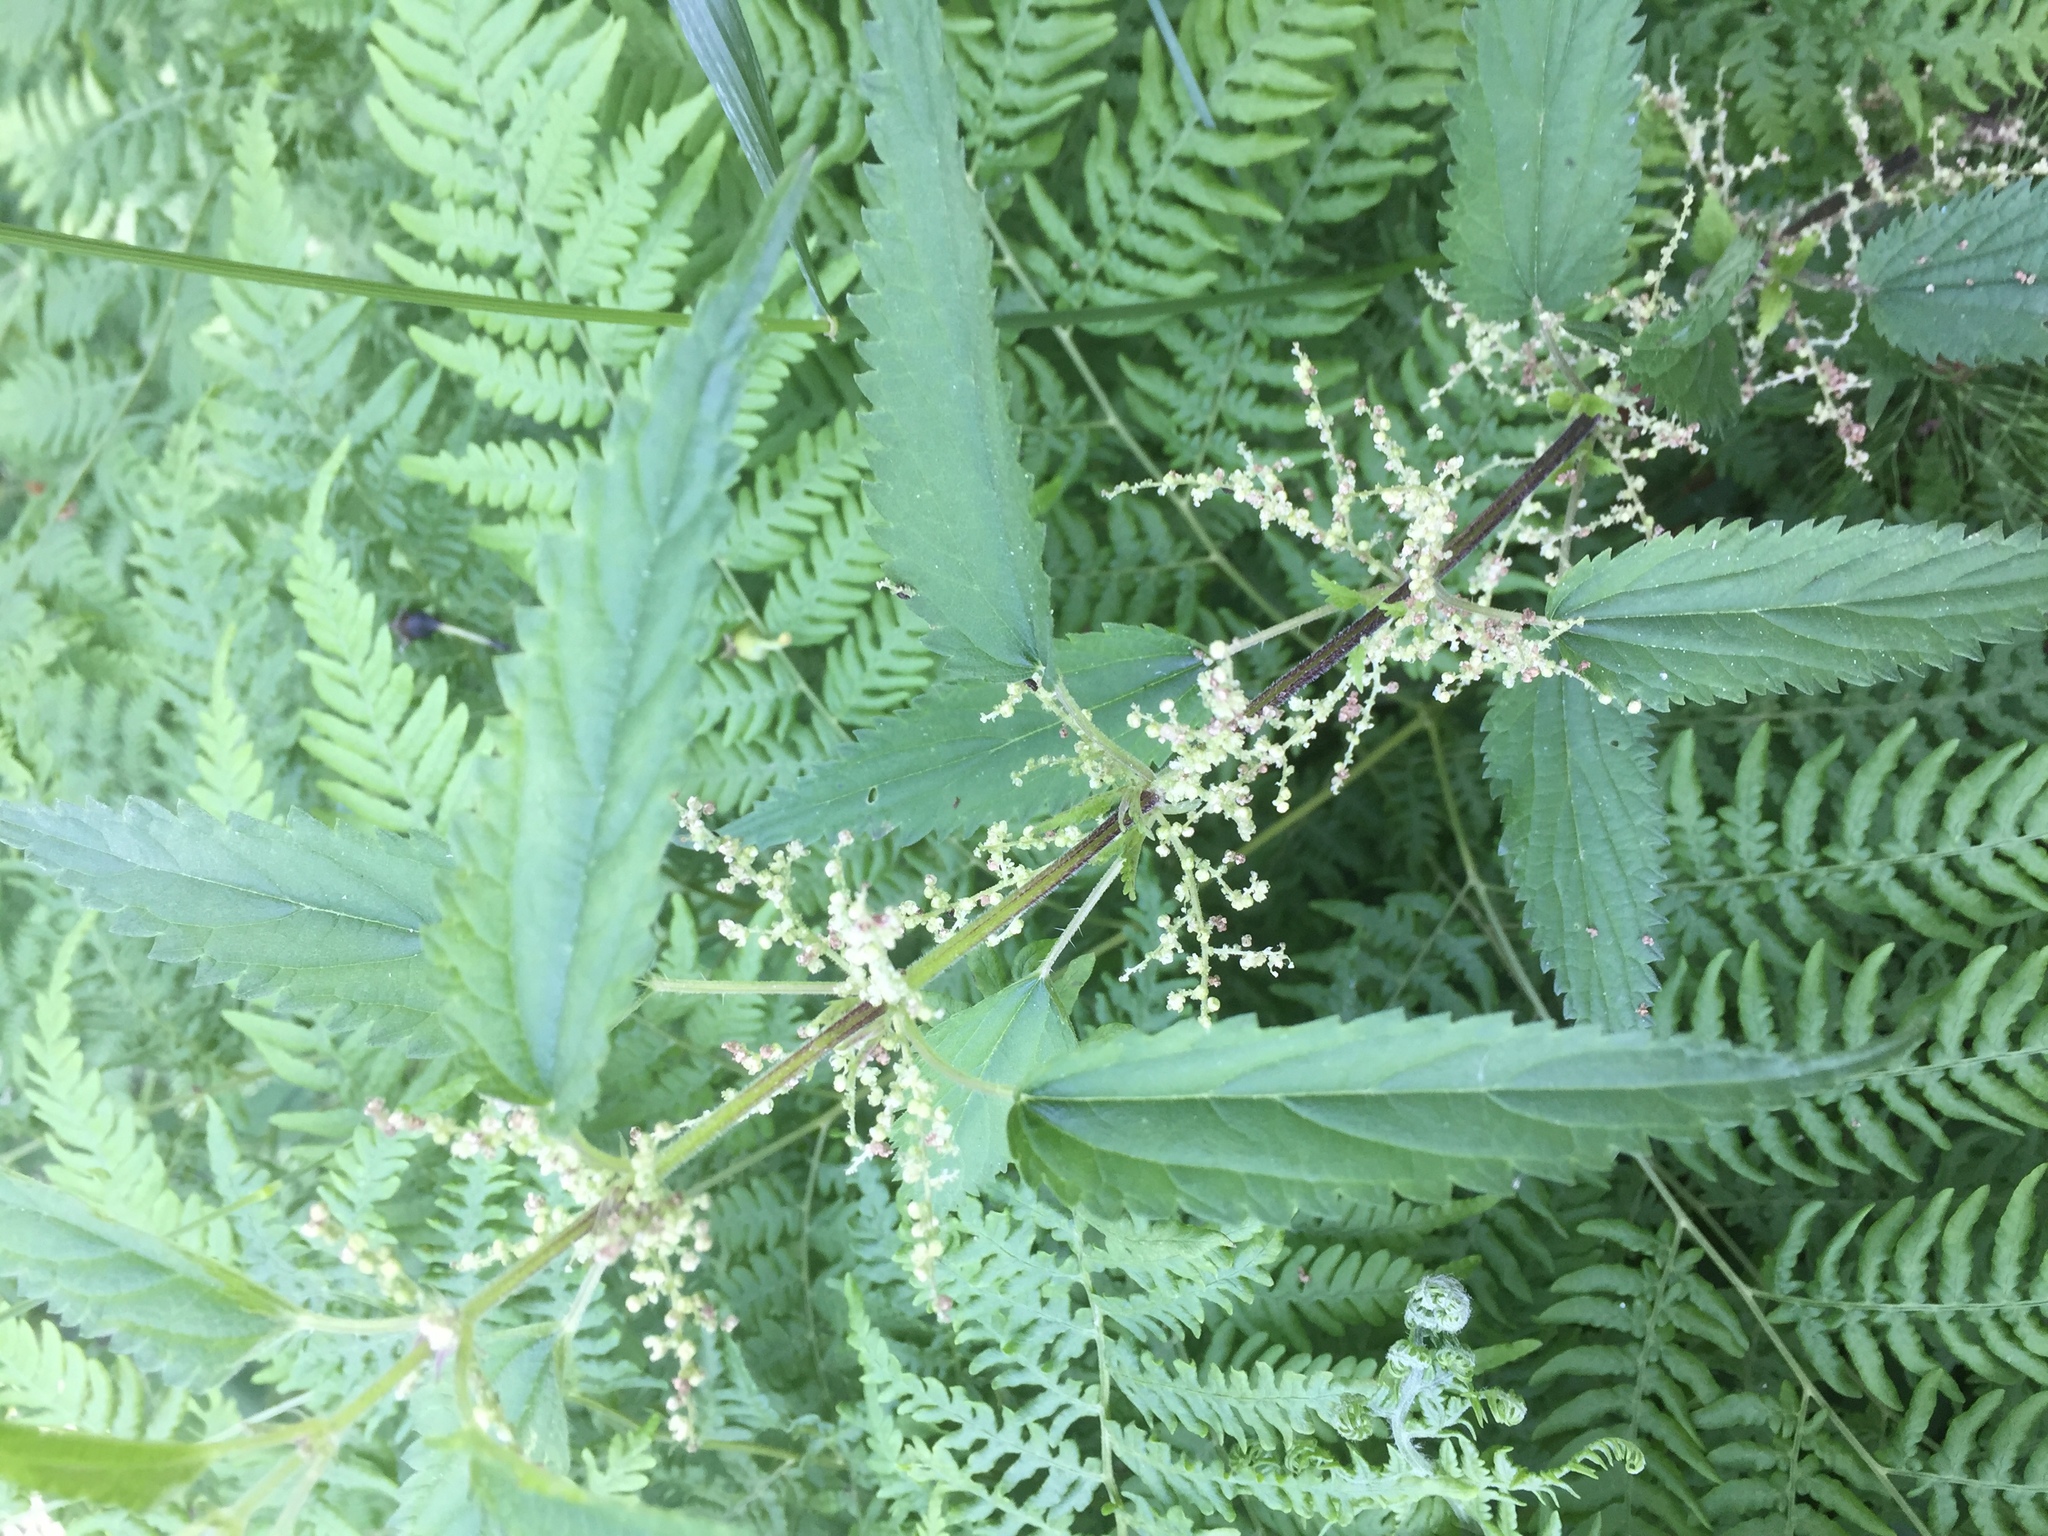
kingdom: Plantae
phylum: Tracheophyta
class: Magnoliopsida
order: Rosales
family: Urticaceae
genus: Urtica
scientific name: Urtica dioica
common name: Common nettle
